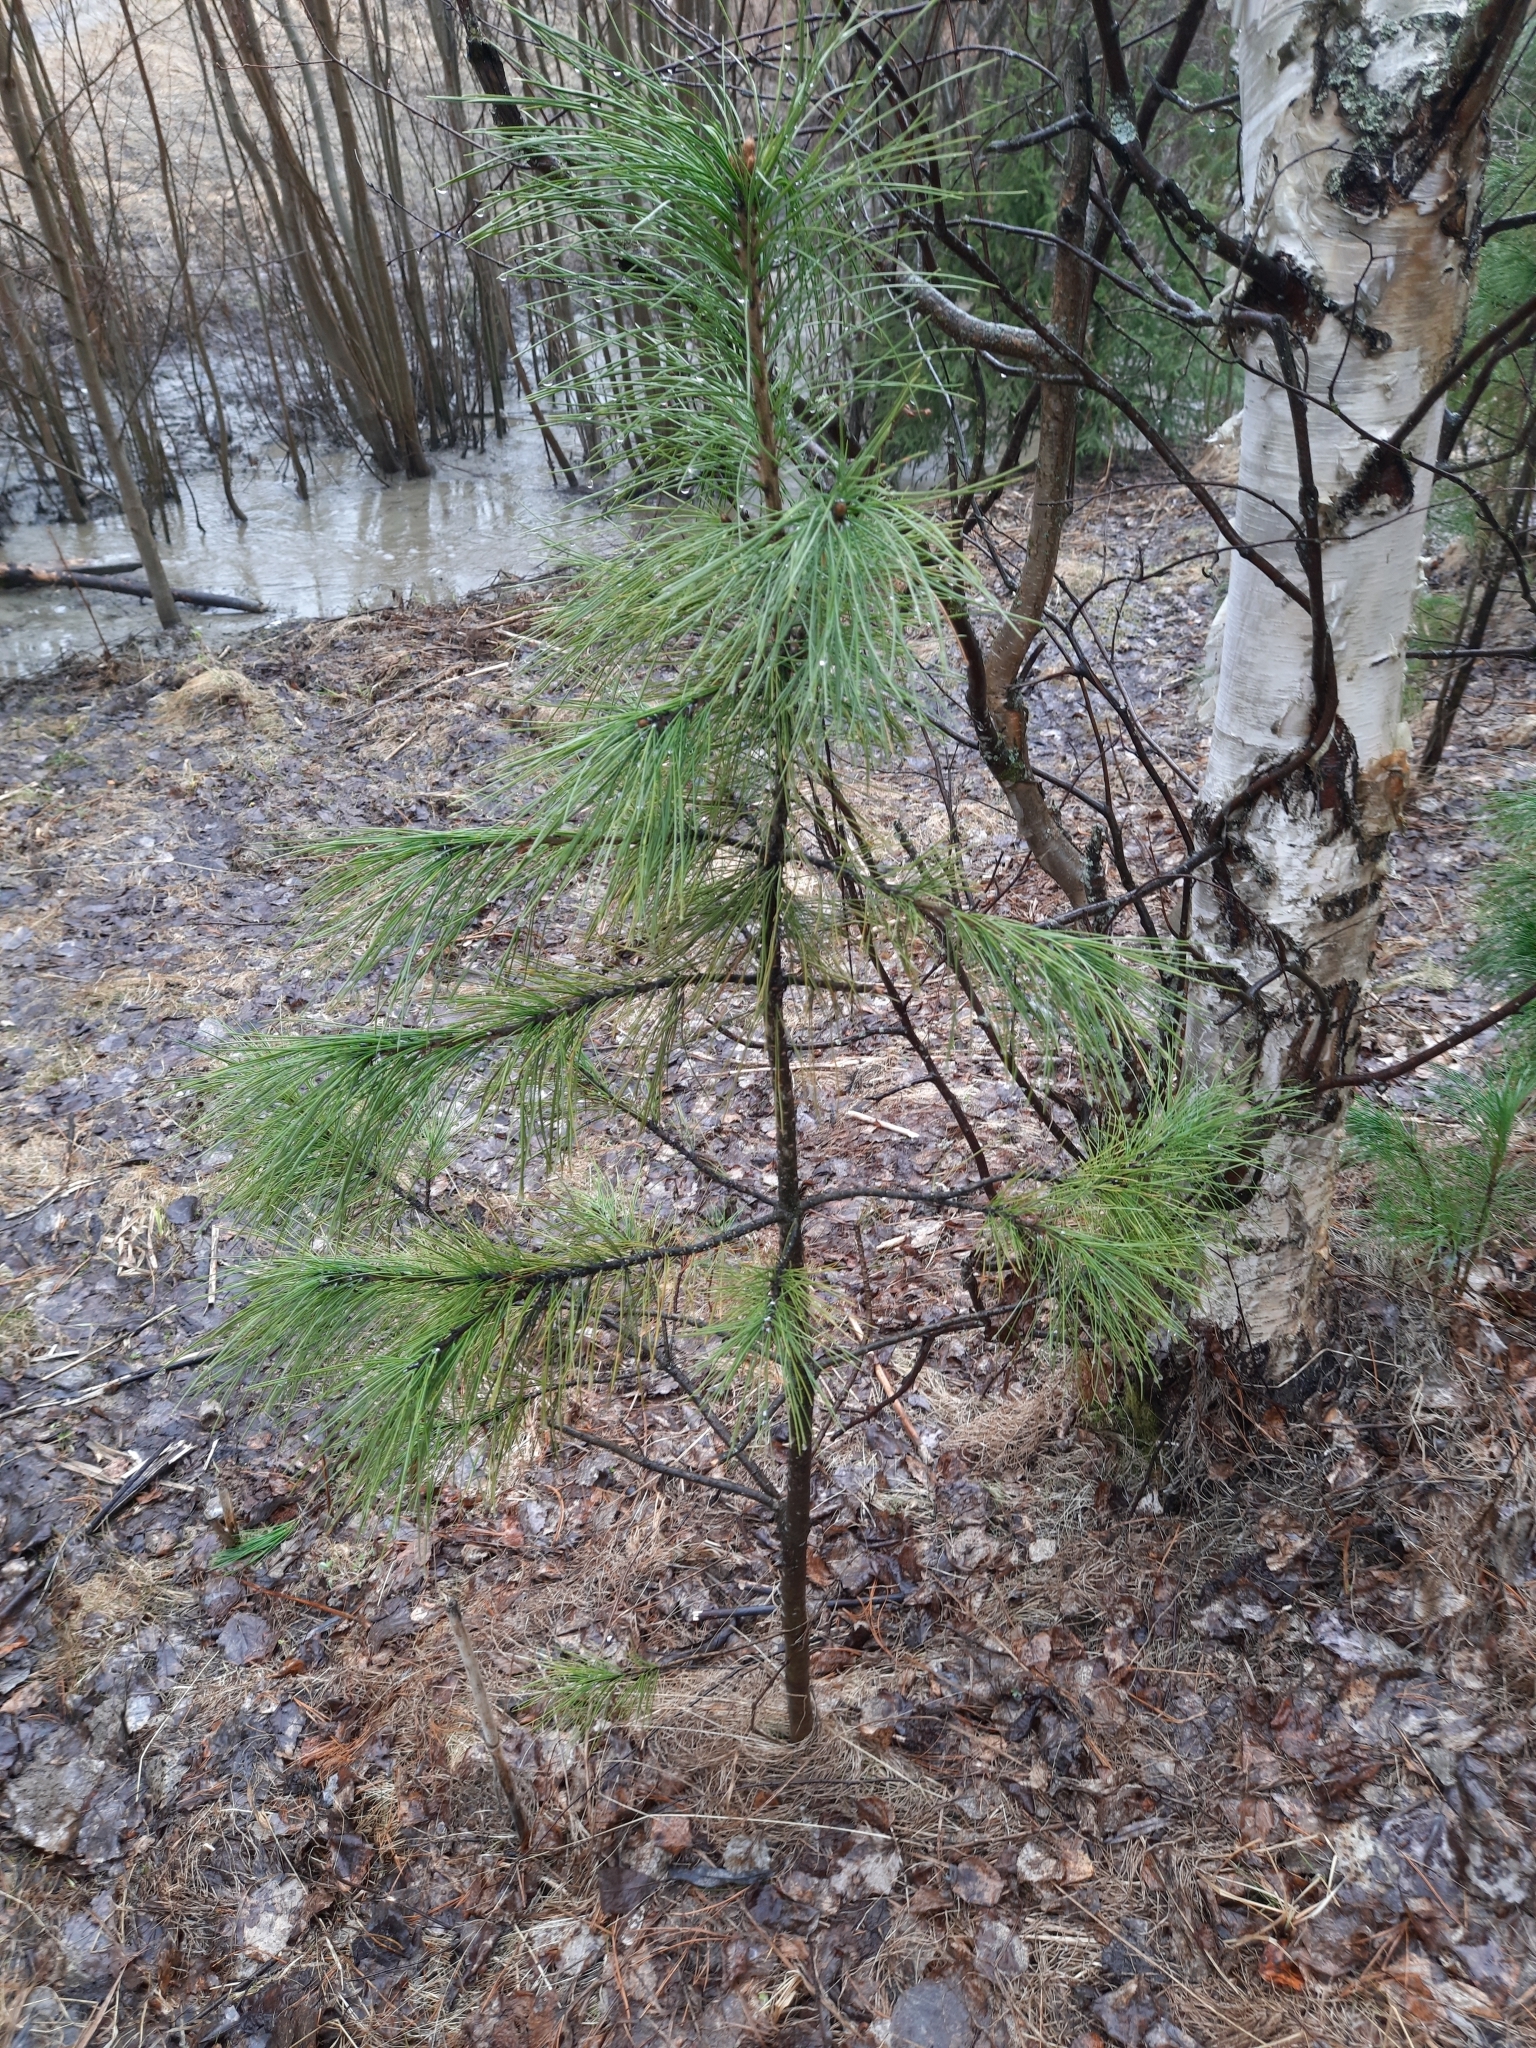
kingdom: Plantae
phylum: Tracheophyta
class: Pinopsida
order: Pinales
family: Pinaceae
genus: Pinus
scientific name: Pinus sibirica
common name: Siberian pine
